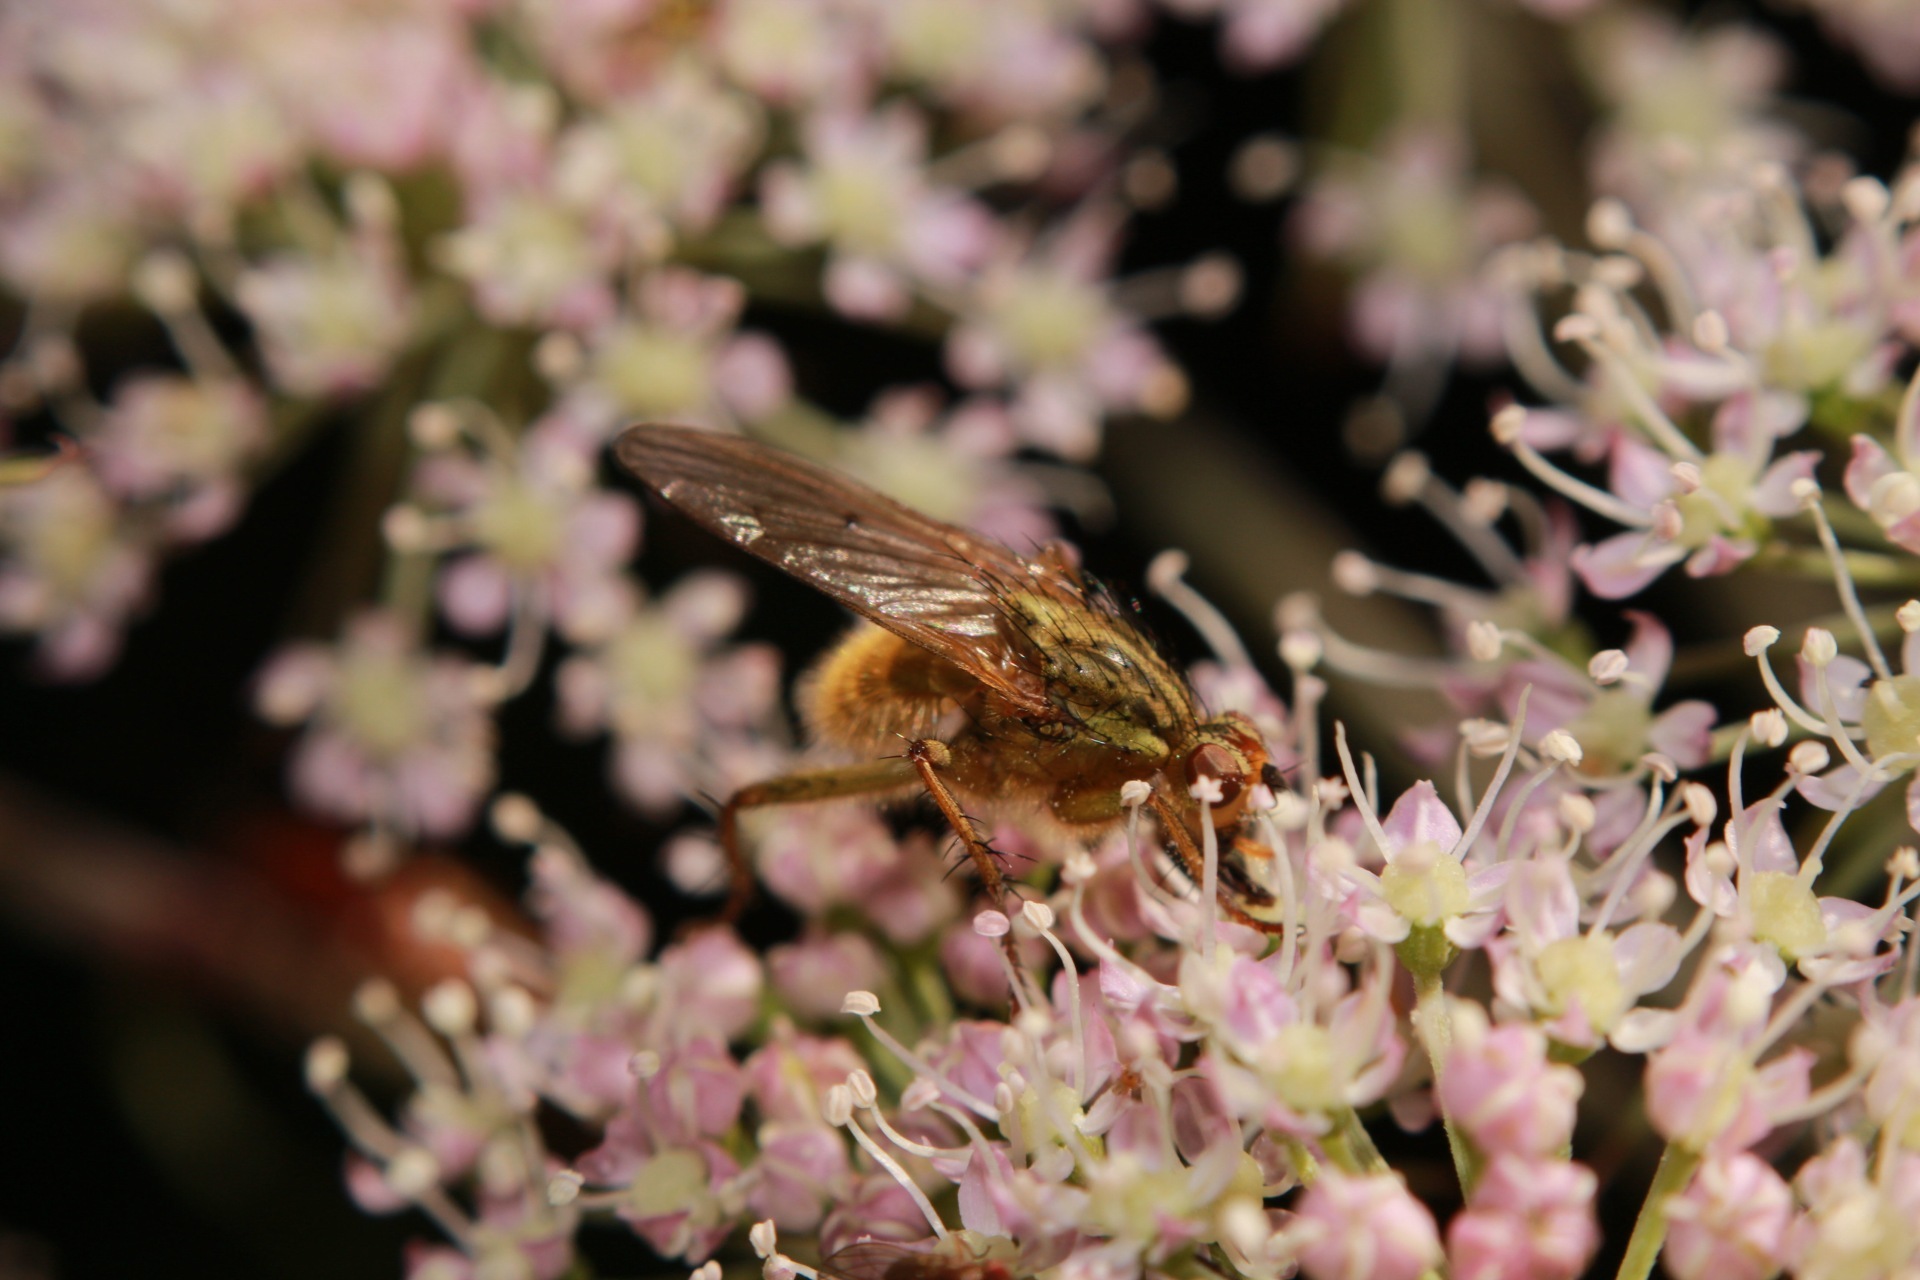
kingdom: Animalia
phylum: Arthropoda
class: Insecta
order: Diptera
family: Scathophagidae
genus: Scathophaga
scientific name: Scathophaga stercoraria
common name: Yellow dung fly
